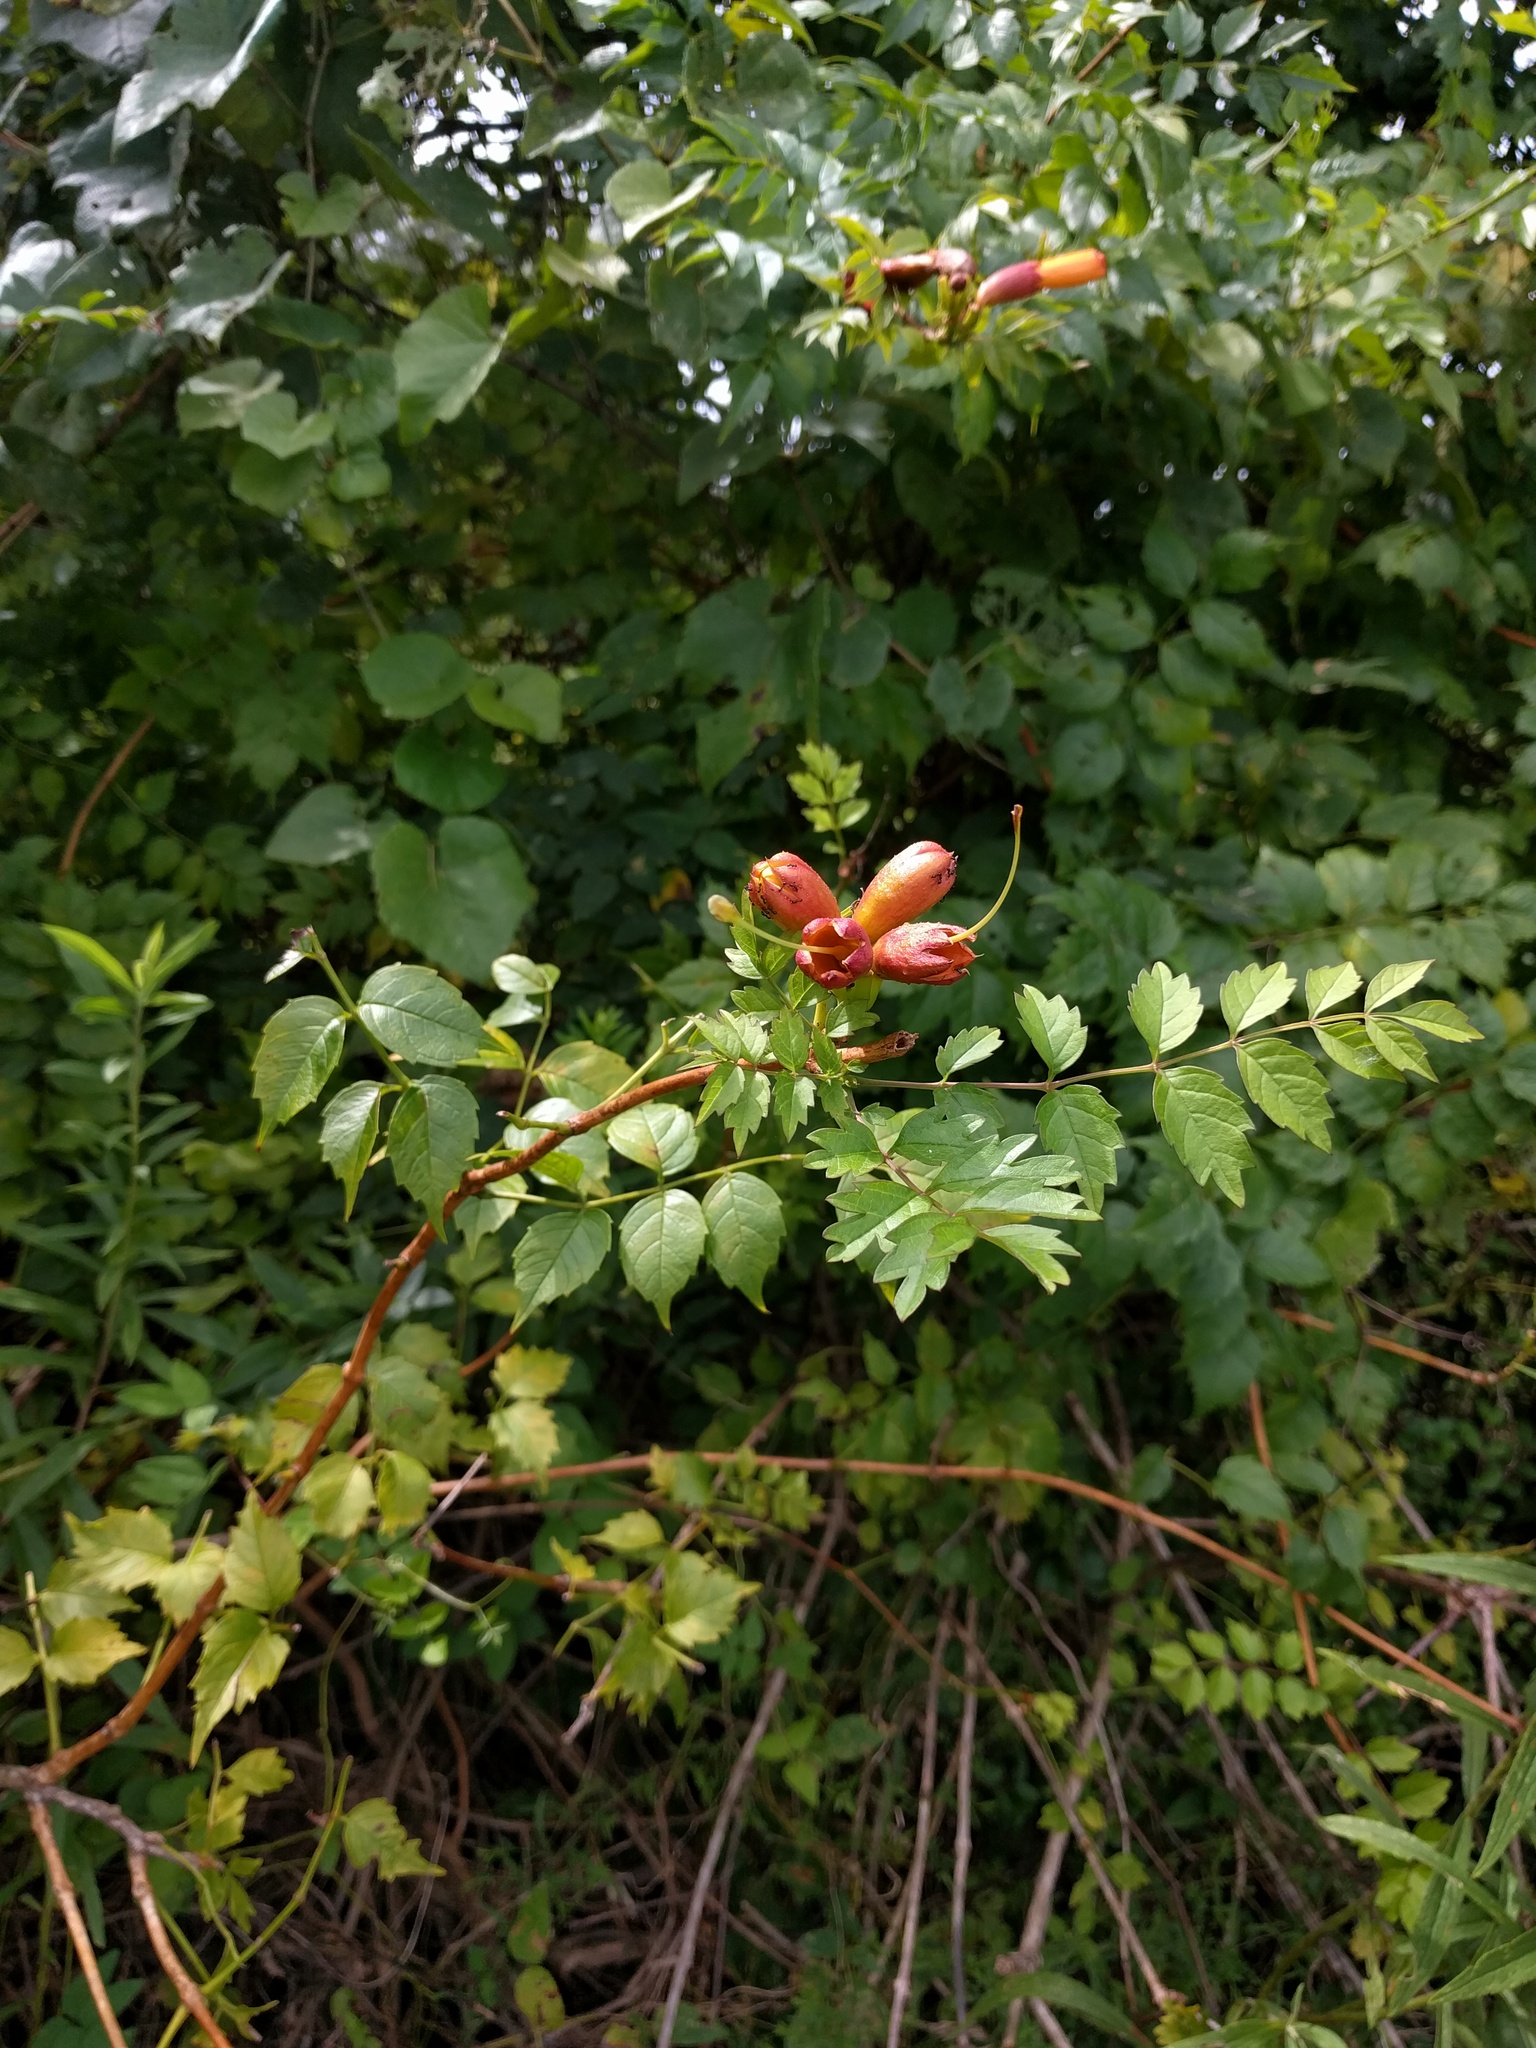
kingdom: Plantae
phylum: Tracheophyta
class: Magnoliopsida
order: Lamiales
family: Bignoniaceae
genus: Campsis
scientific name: Campsis radicans
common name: Trumpet-creeper
